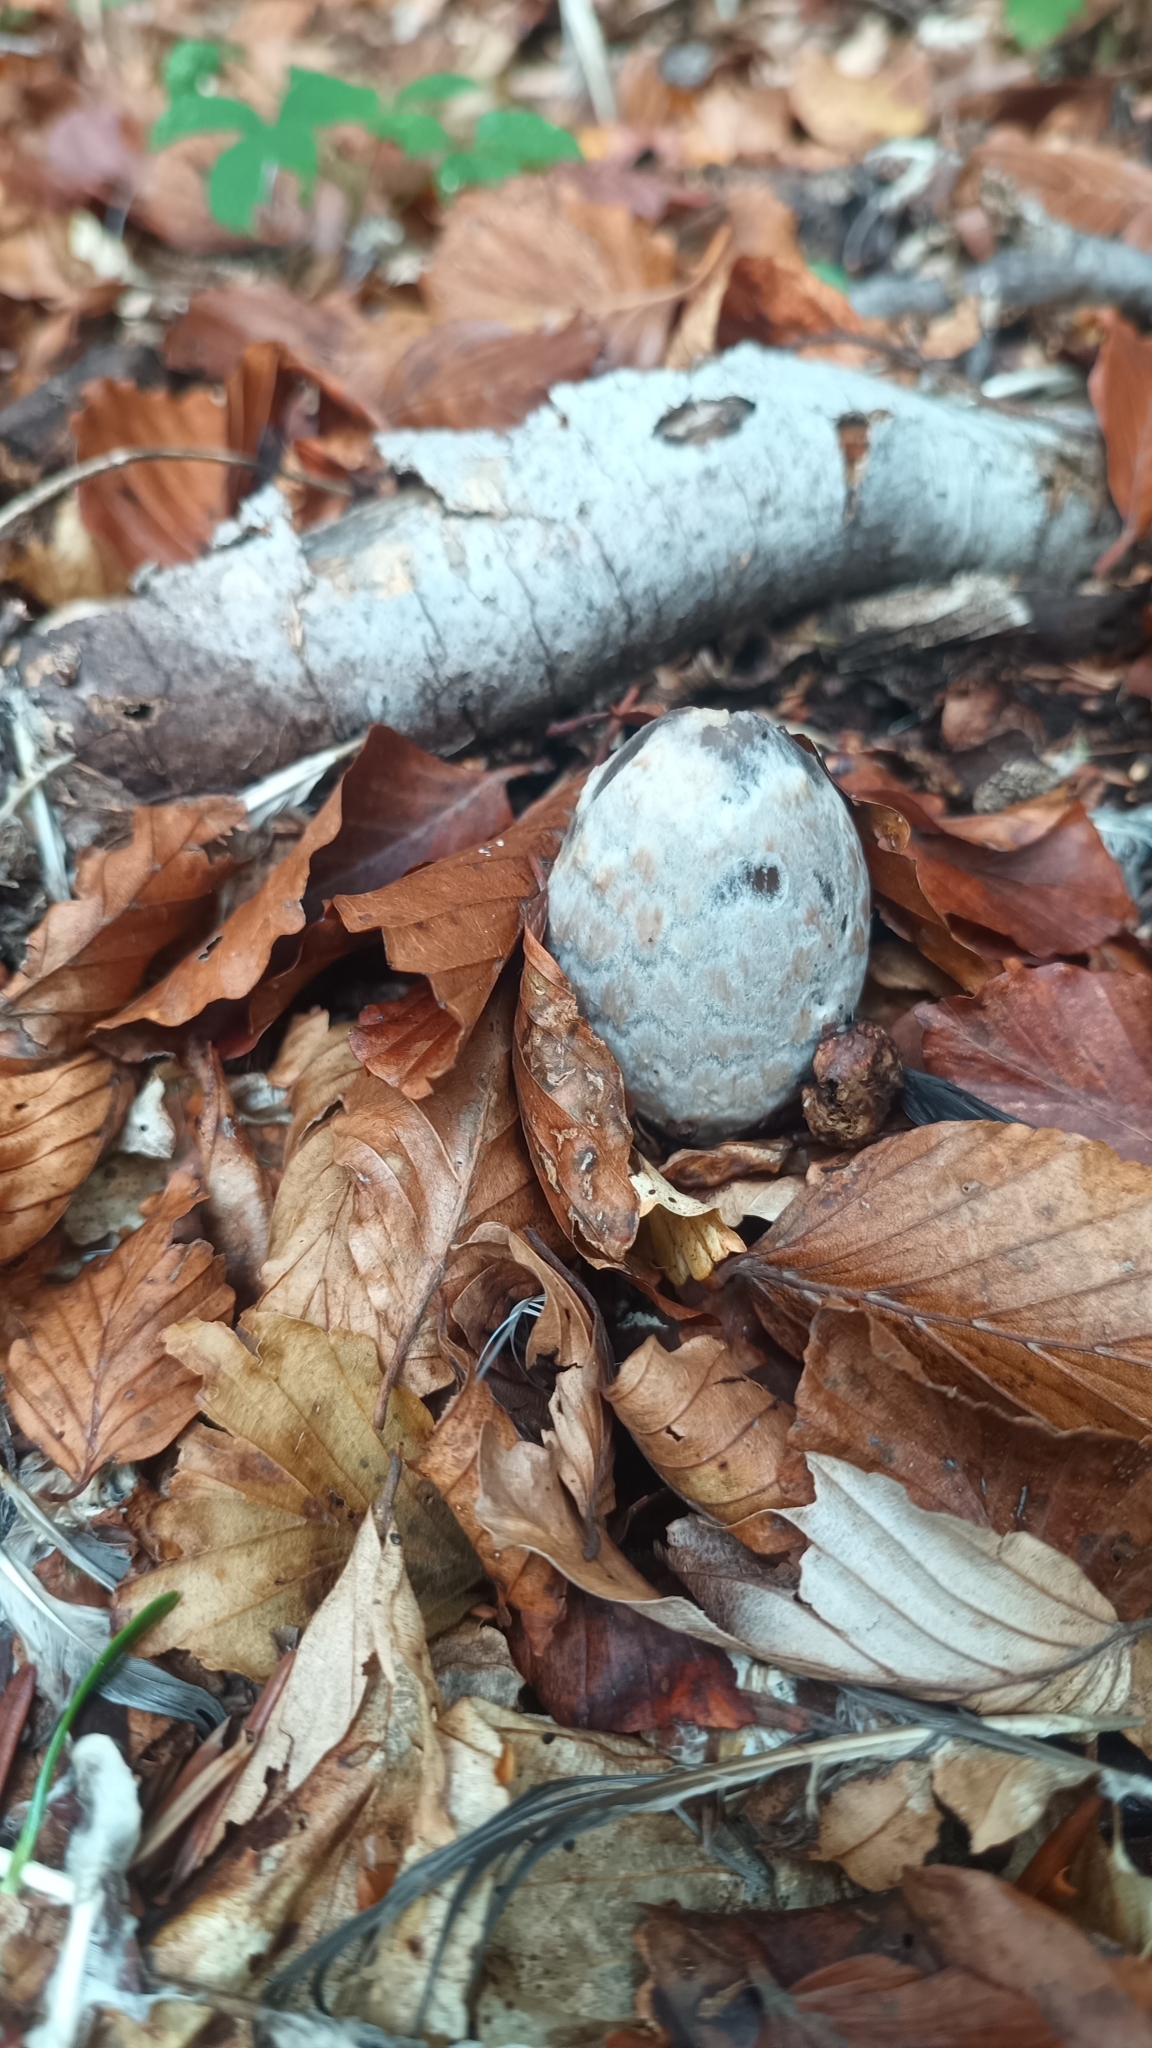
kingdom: Fungi
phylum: Basidiomycota
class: Agaricomycetes
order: Agaricales
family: Psathyrellaceae
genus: Coprinopsis
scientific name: Coprinopsis picacea
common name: Magpie inkcap
